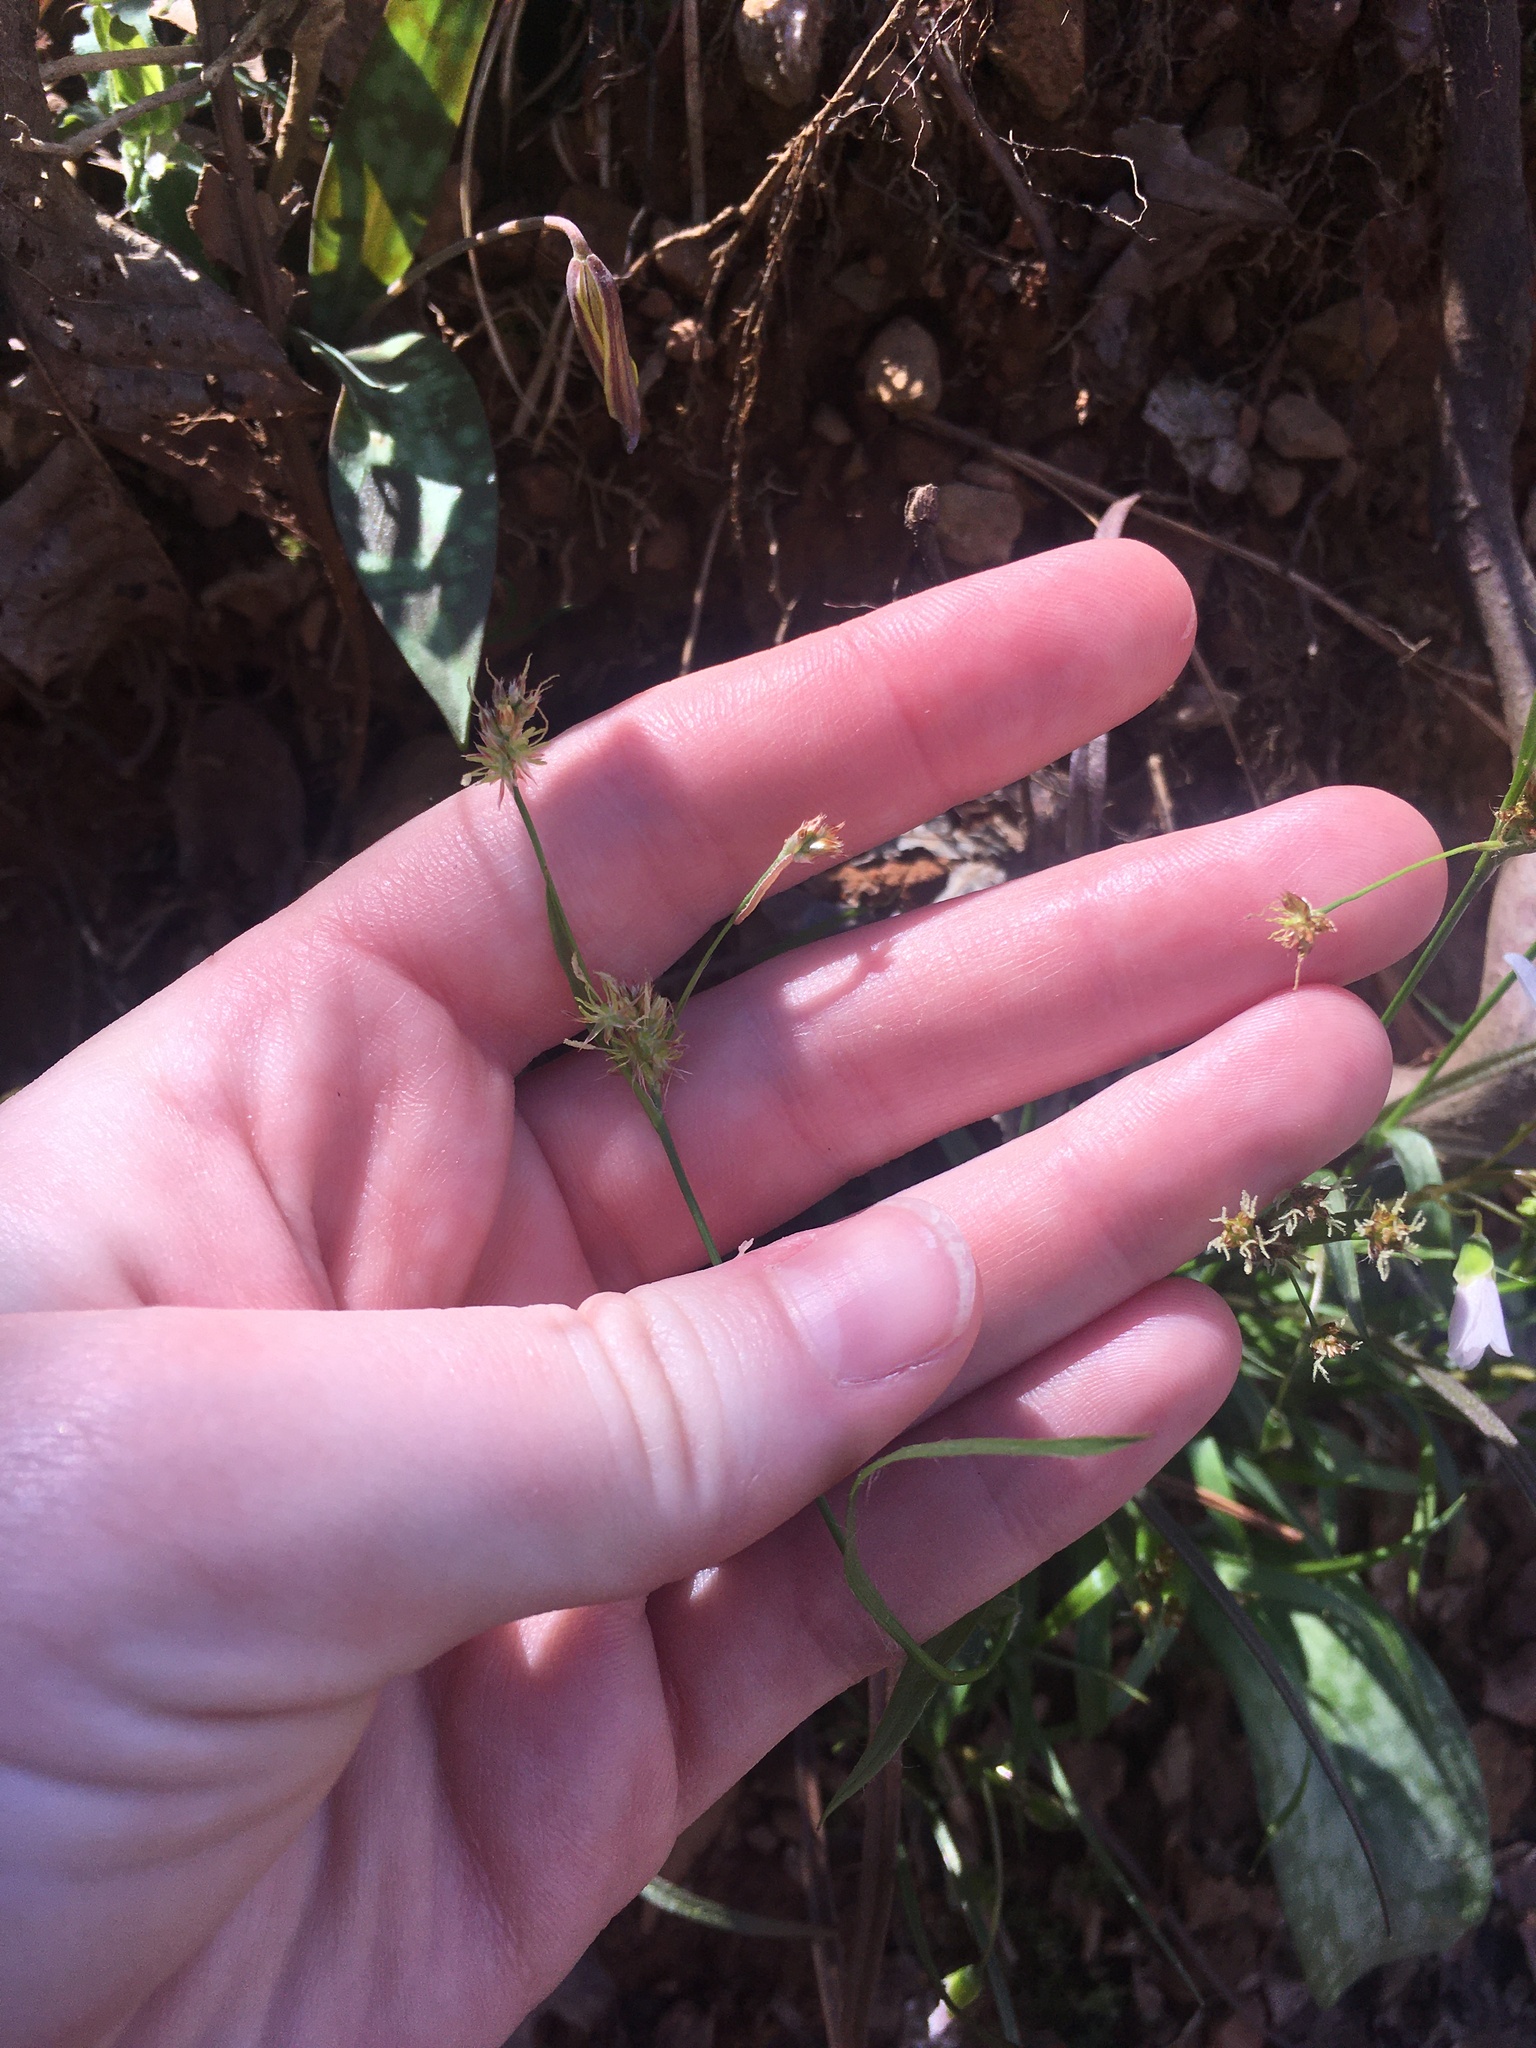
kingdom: Plantae
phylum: Tracheophyta
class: Liliopsida
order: Poales
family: Juncaceae
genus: Luzula
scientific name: Luzula echinata
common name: Hedgehog woodrush
